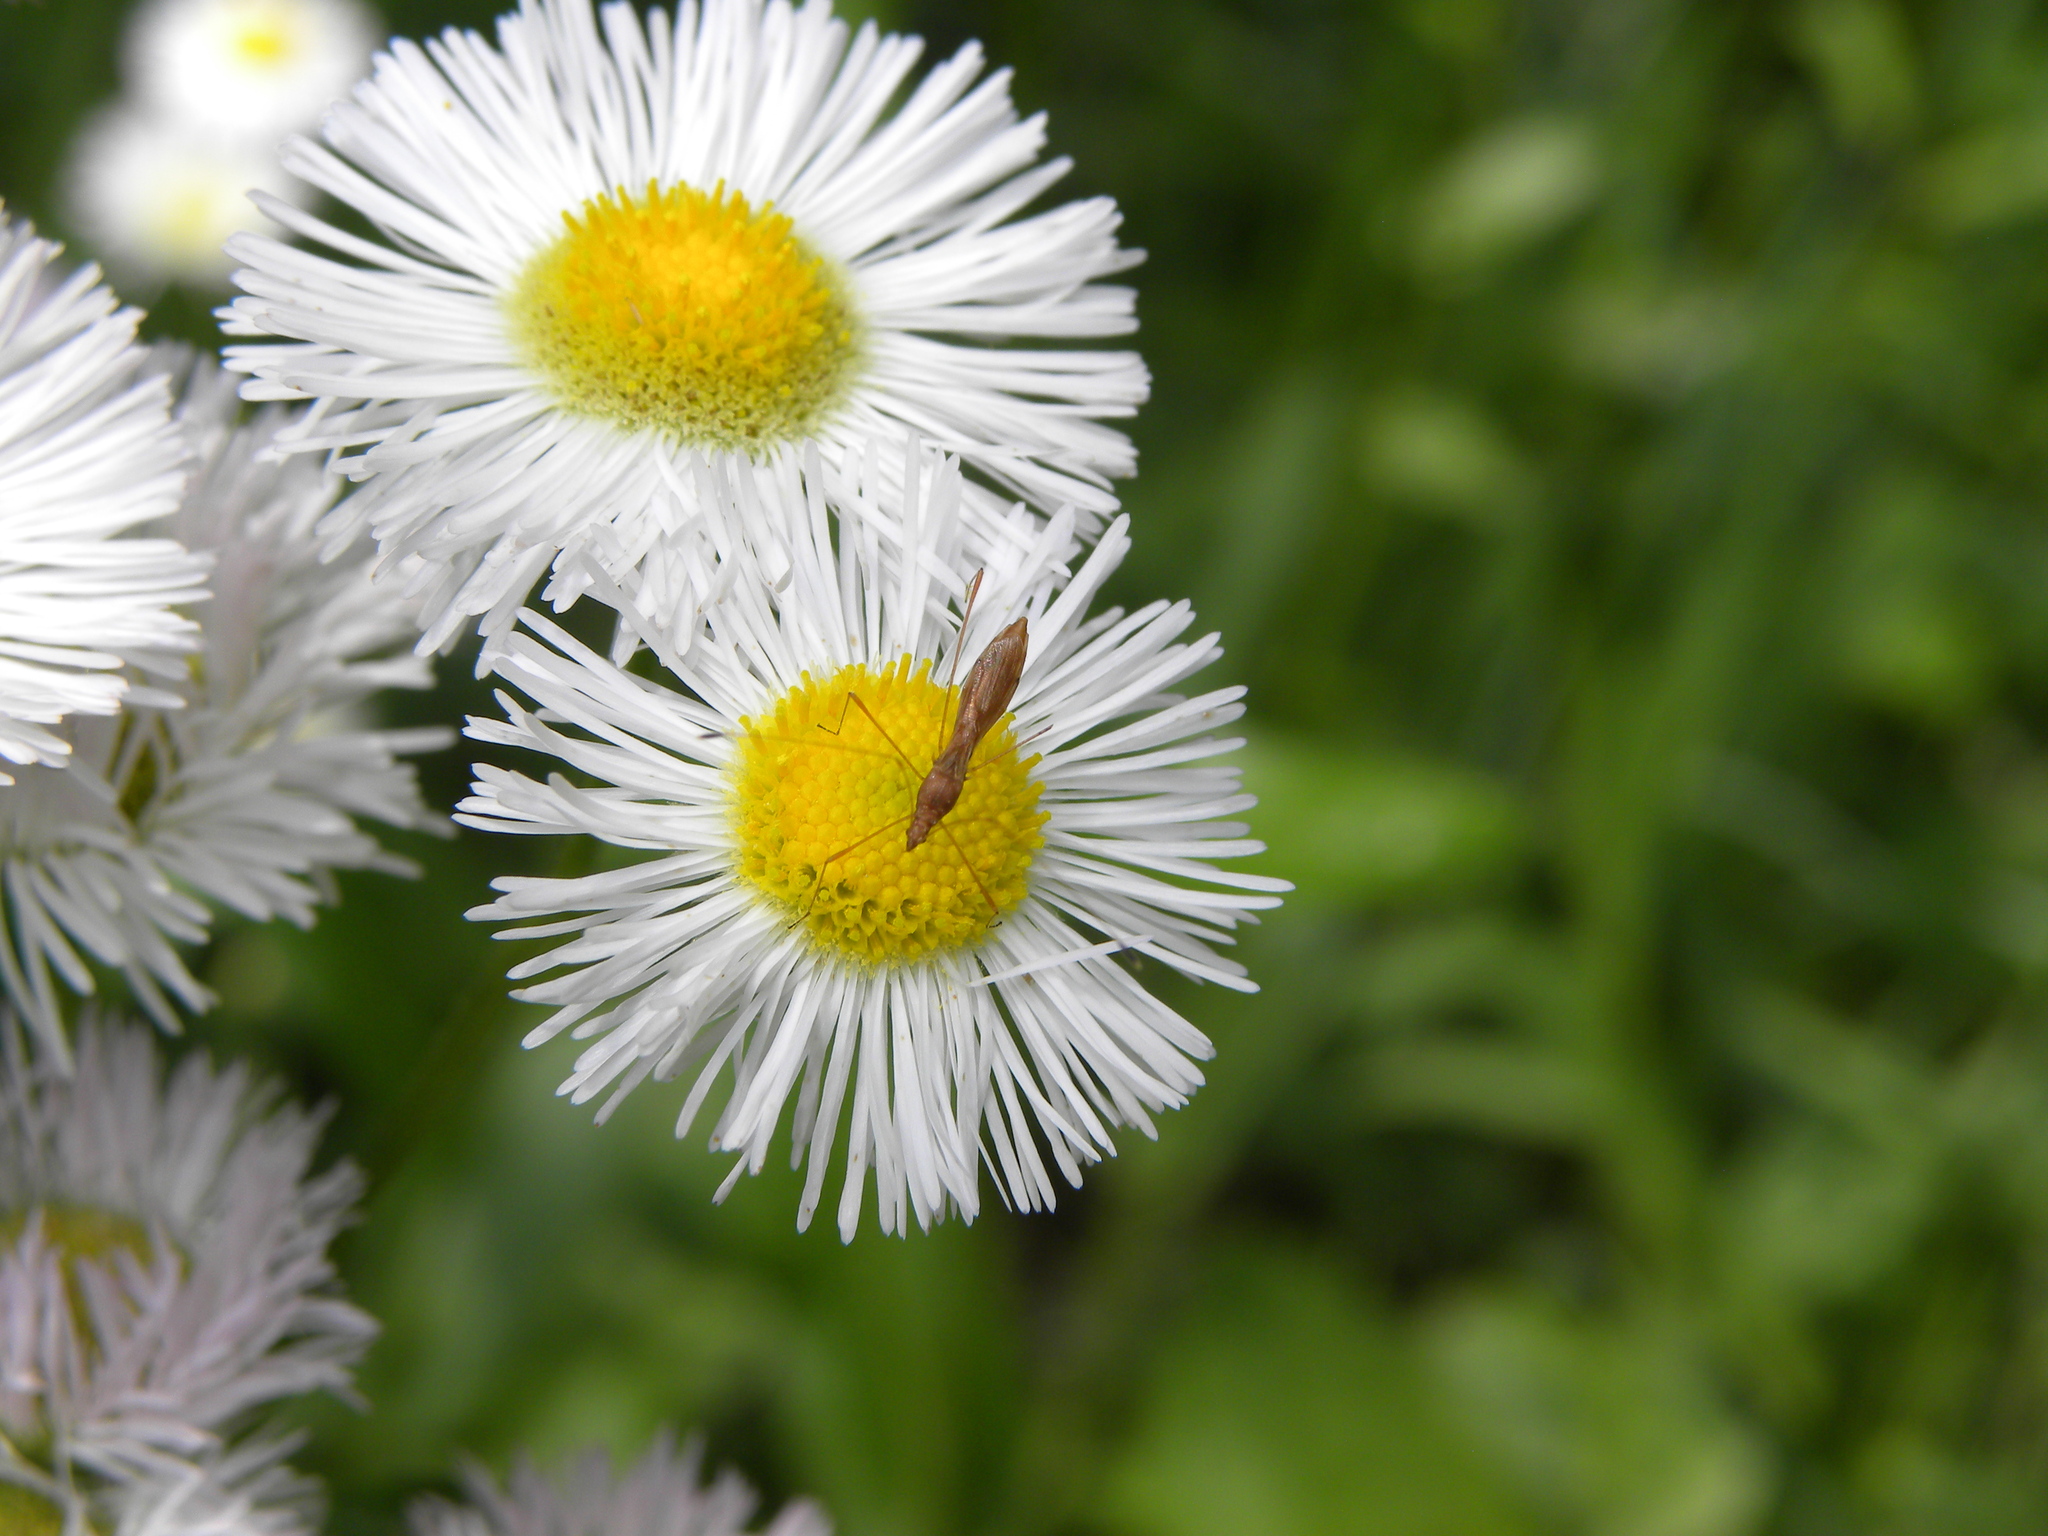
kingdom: Animalia
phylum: Arthropoda
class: Insecta
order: Hemiptera
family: Berytidae
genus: Jalysus
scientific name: Jalysus
